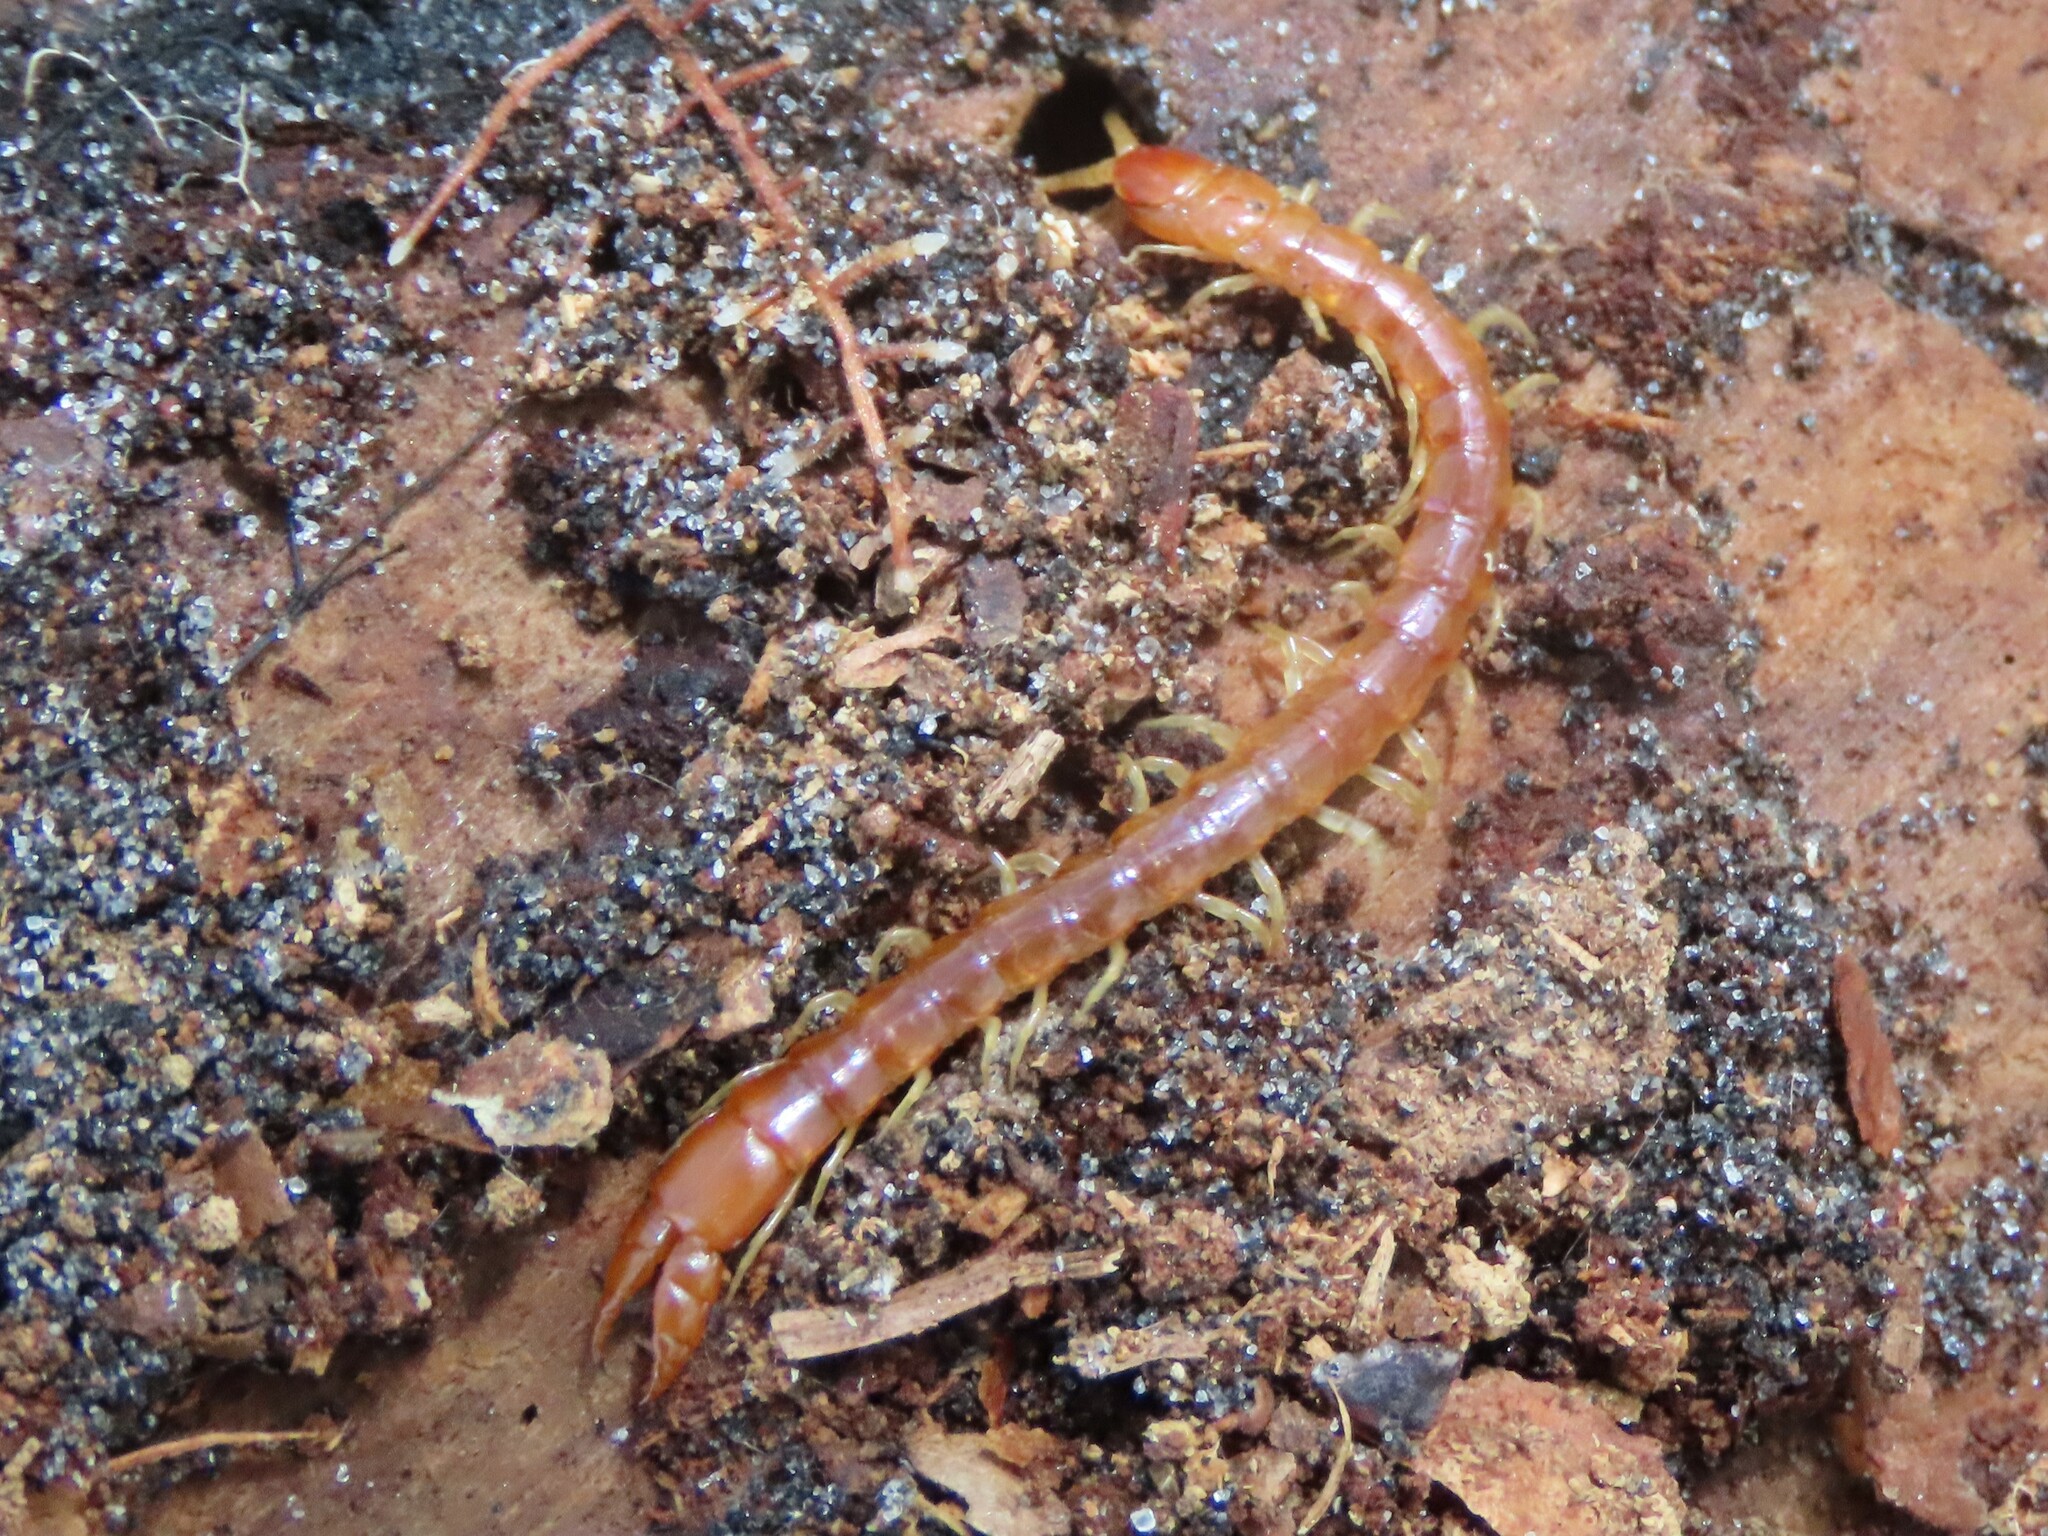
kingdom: Animalia
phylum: Arthropoda
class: Chilopoda
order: Scolopendromorpha
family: Cryptopidae
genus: Theatops
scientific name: Theatops posticus
